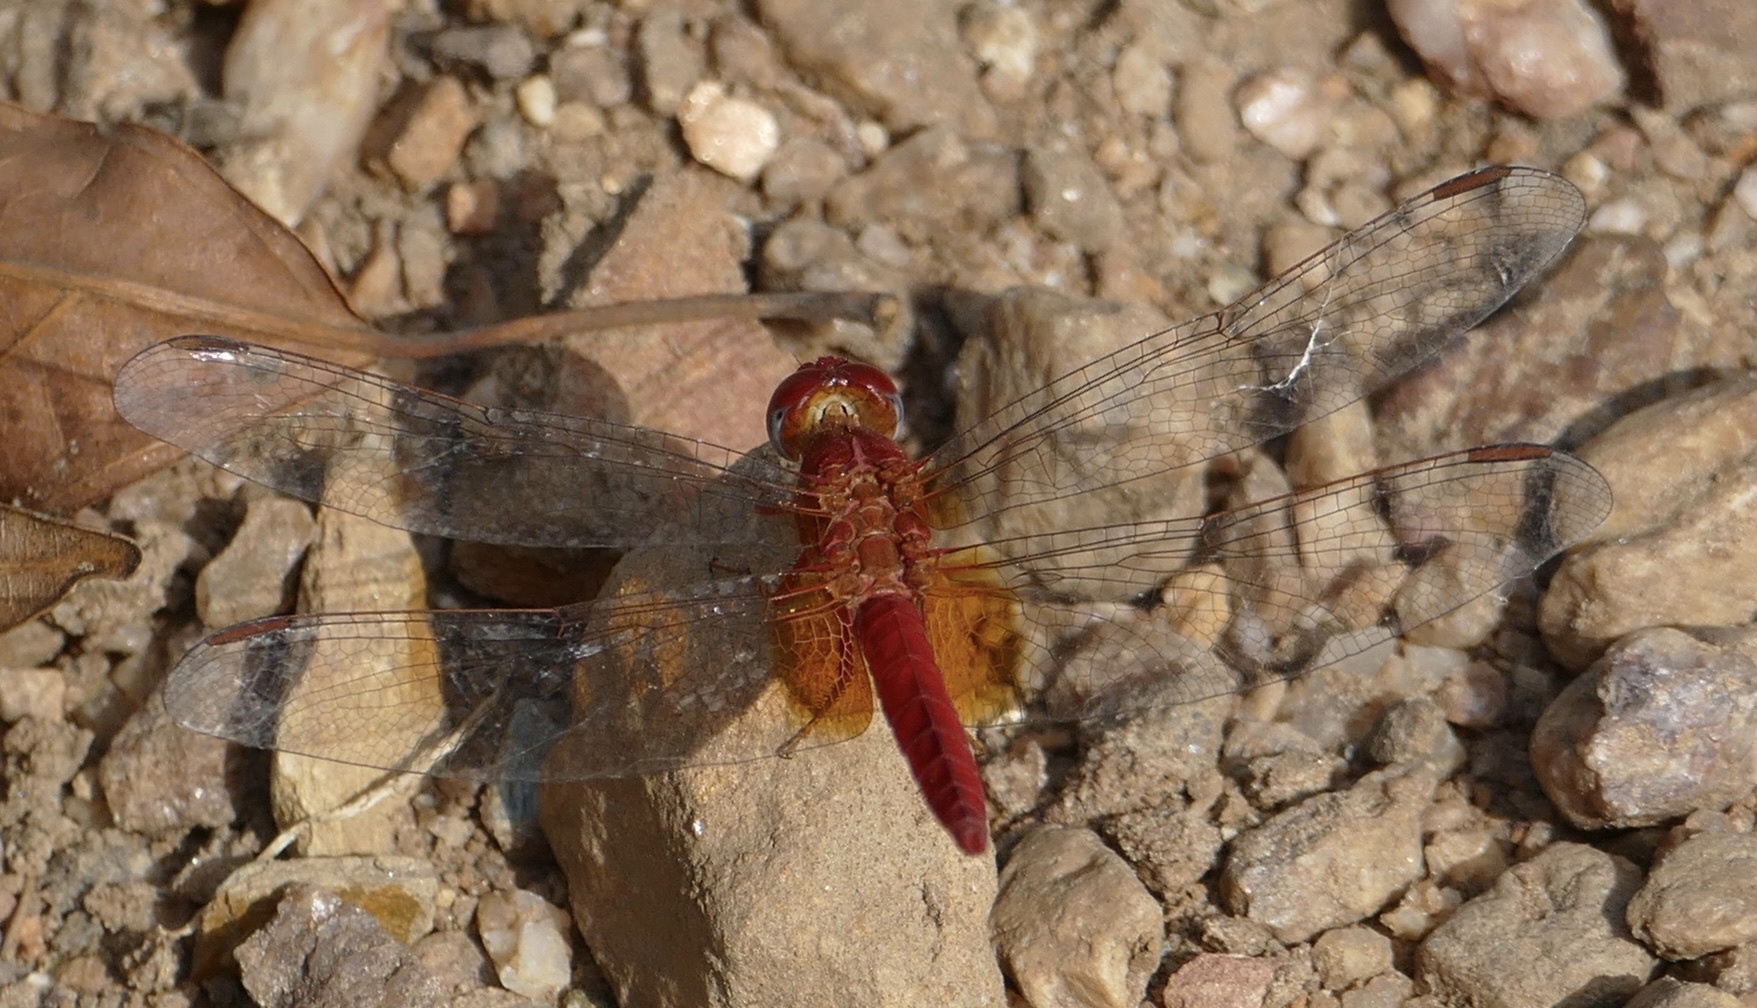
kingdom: Animalia
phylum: Arthropoda
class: Insecta
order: Odonata
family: Libellulidae
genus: Crocothemis
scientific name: Crocothemis erythraea
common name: Scarlet dragonfly
